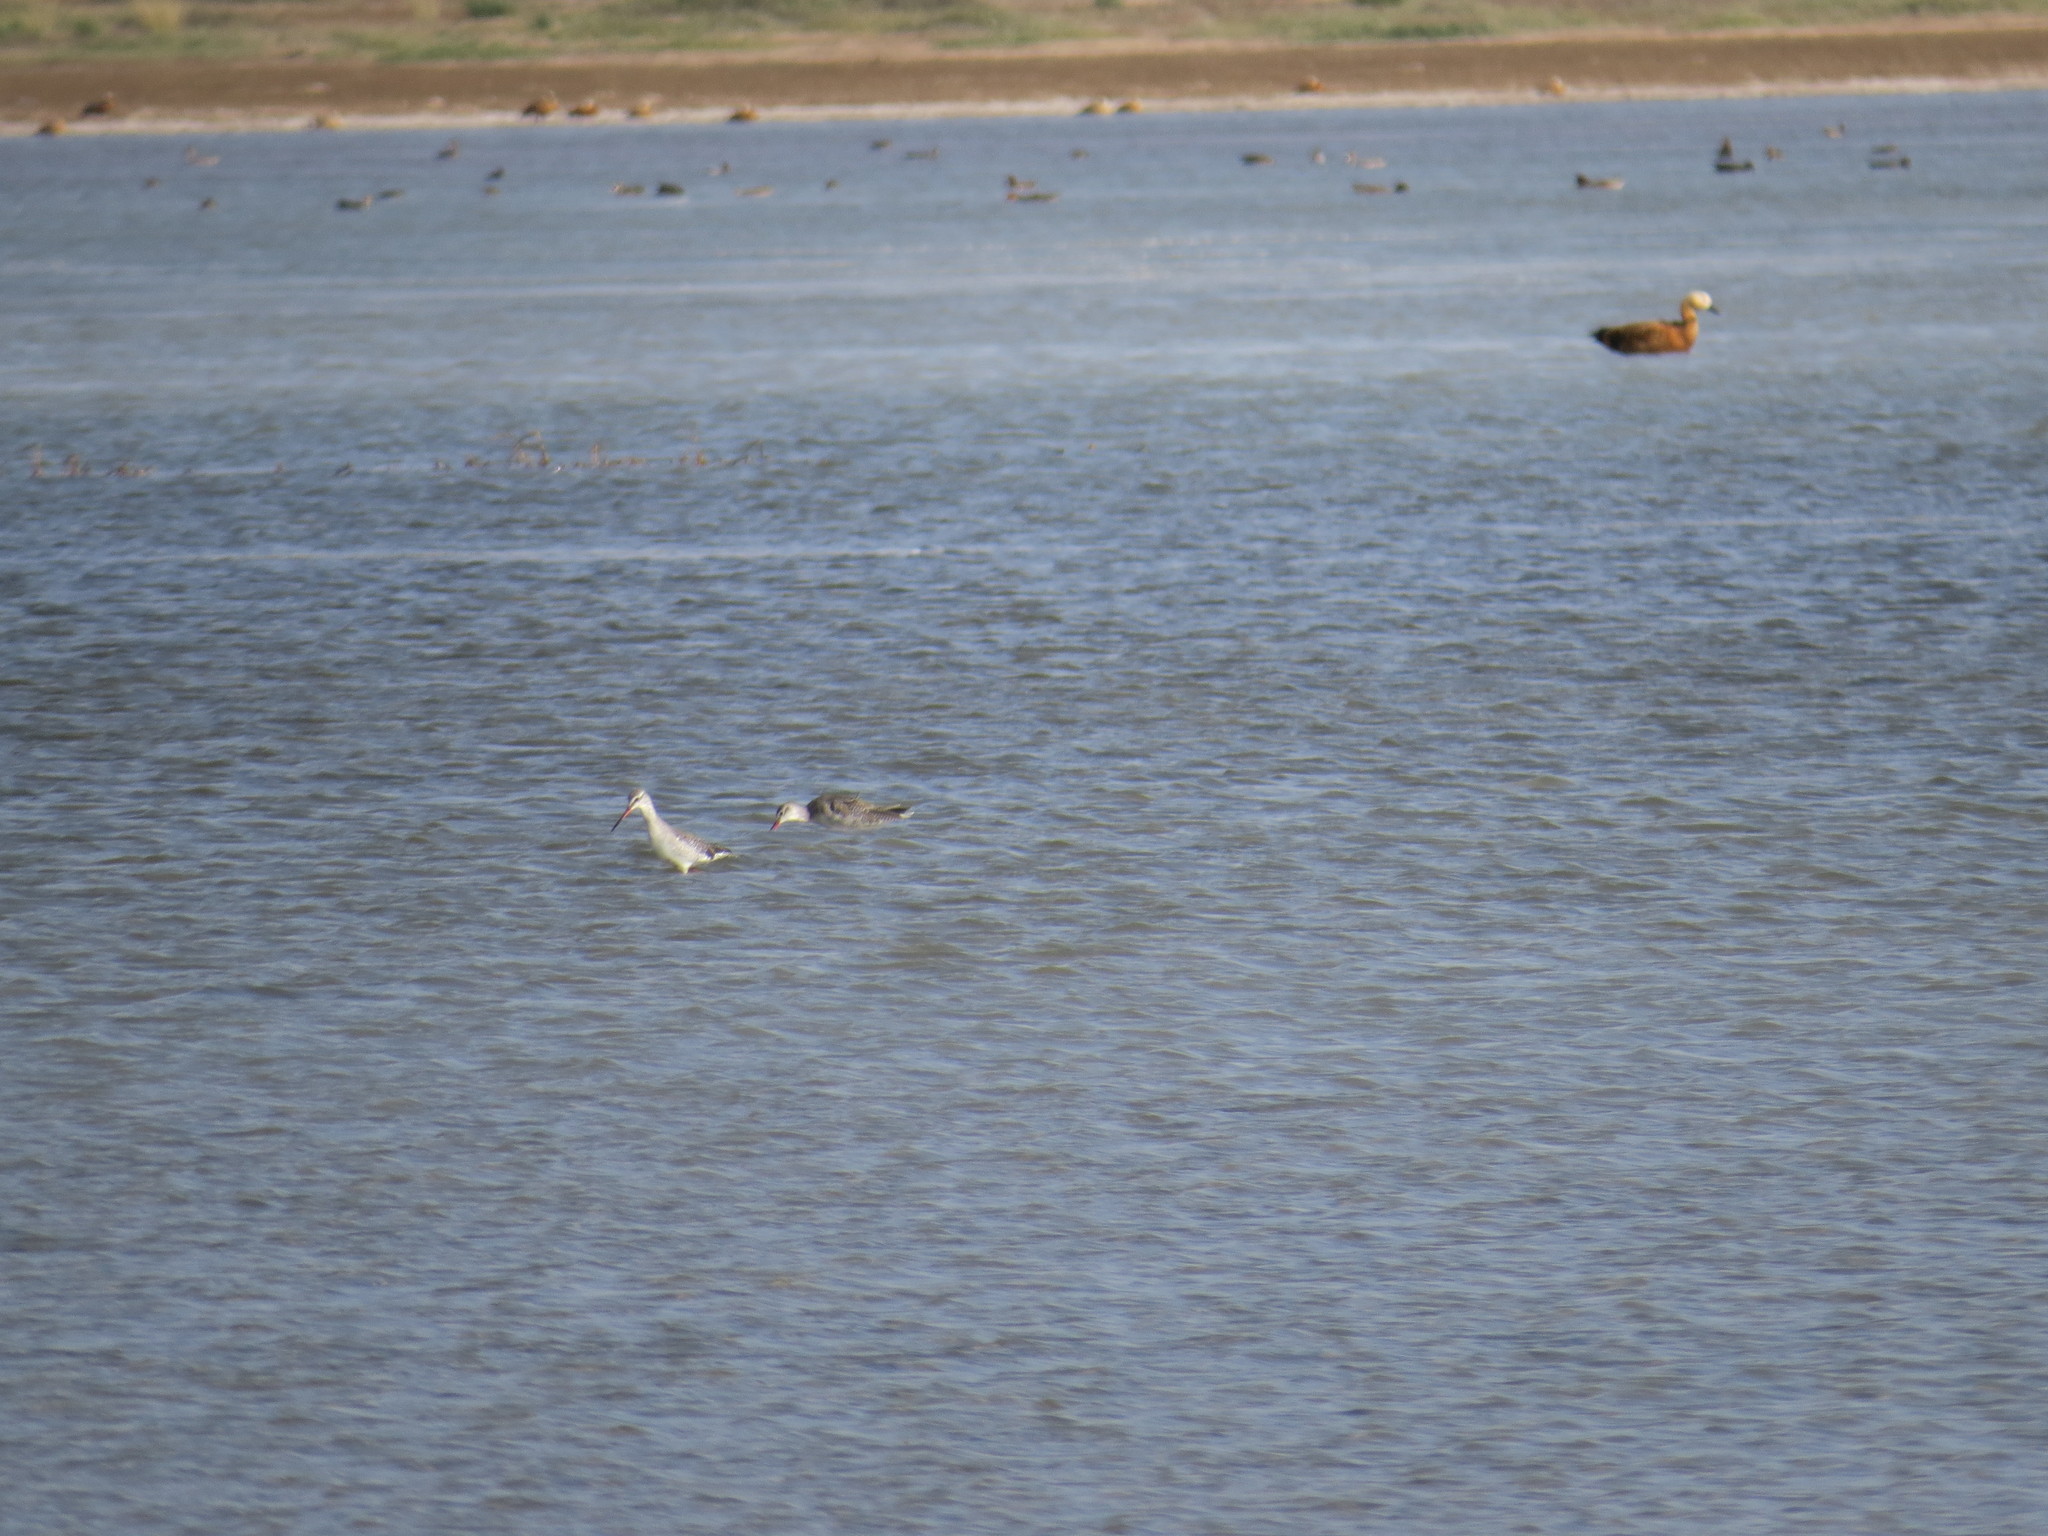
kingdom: Animalia
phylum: Chordata
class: Aves
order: Charadriiformes
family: Scolopacidae
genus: Tringa
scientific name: Tringa erythropus
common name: Spotted redshank
